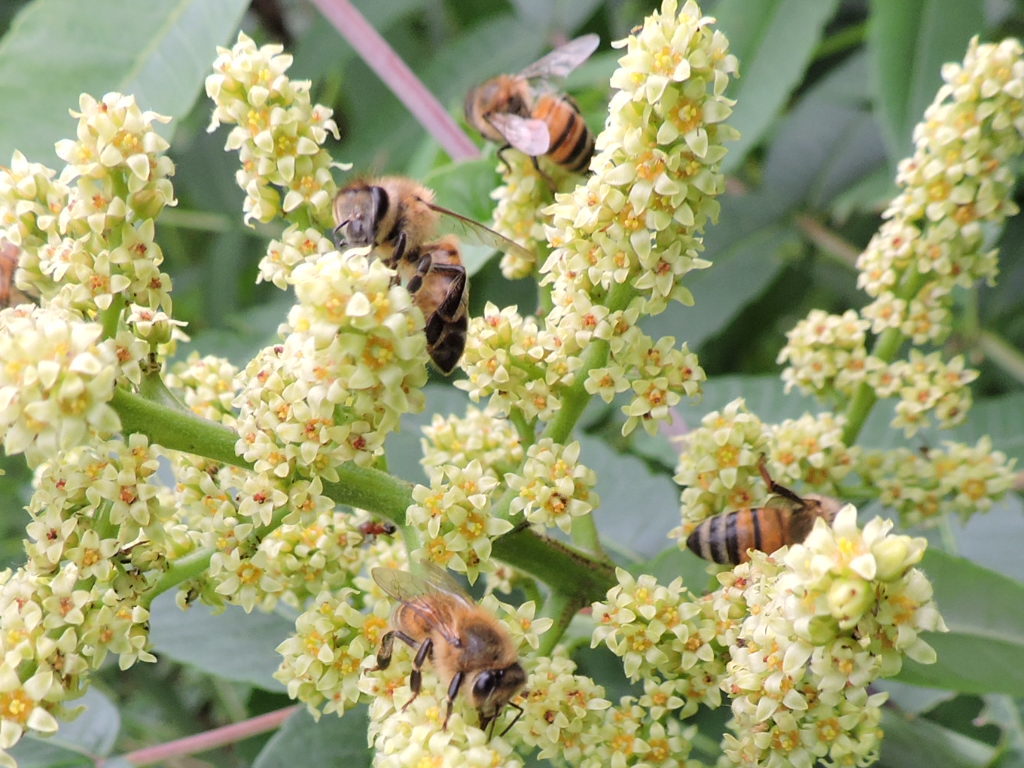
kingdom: Animalia
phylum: Arthropoda
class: Insecta
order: Hymenoptera
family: Apidae
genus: Apis
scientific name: Apis mellifera
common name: Honey bee
